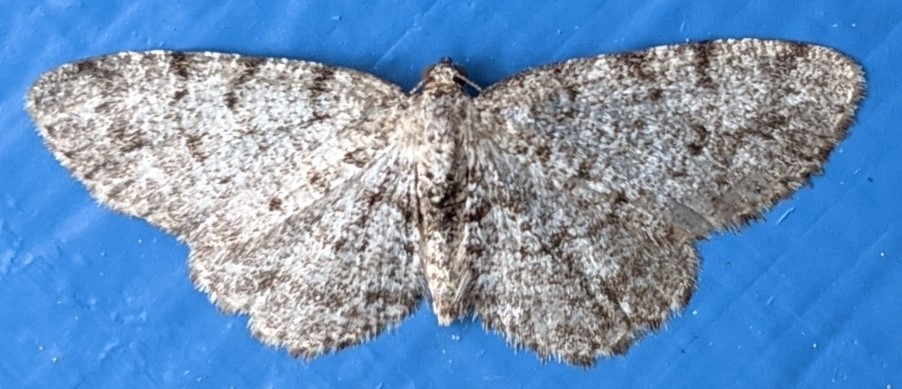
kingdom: Animalia
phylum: Arthropoda
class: Insecta
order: Lepidoptera
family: Geometridae
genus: Aethalura
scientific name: Aethalura intertexta
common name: Four-barred gray
